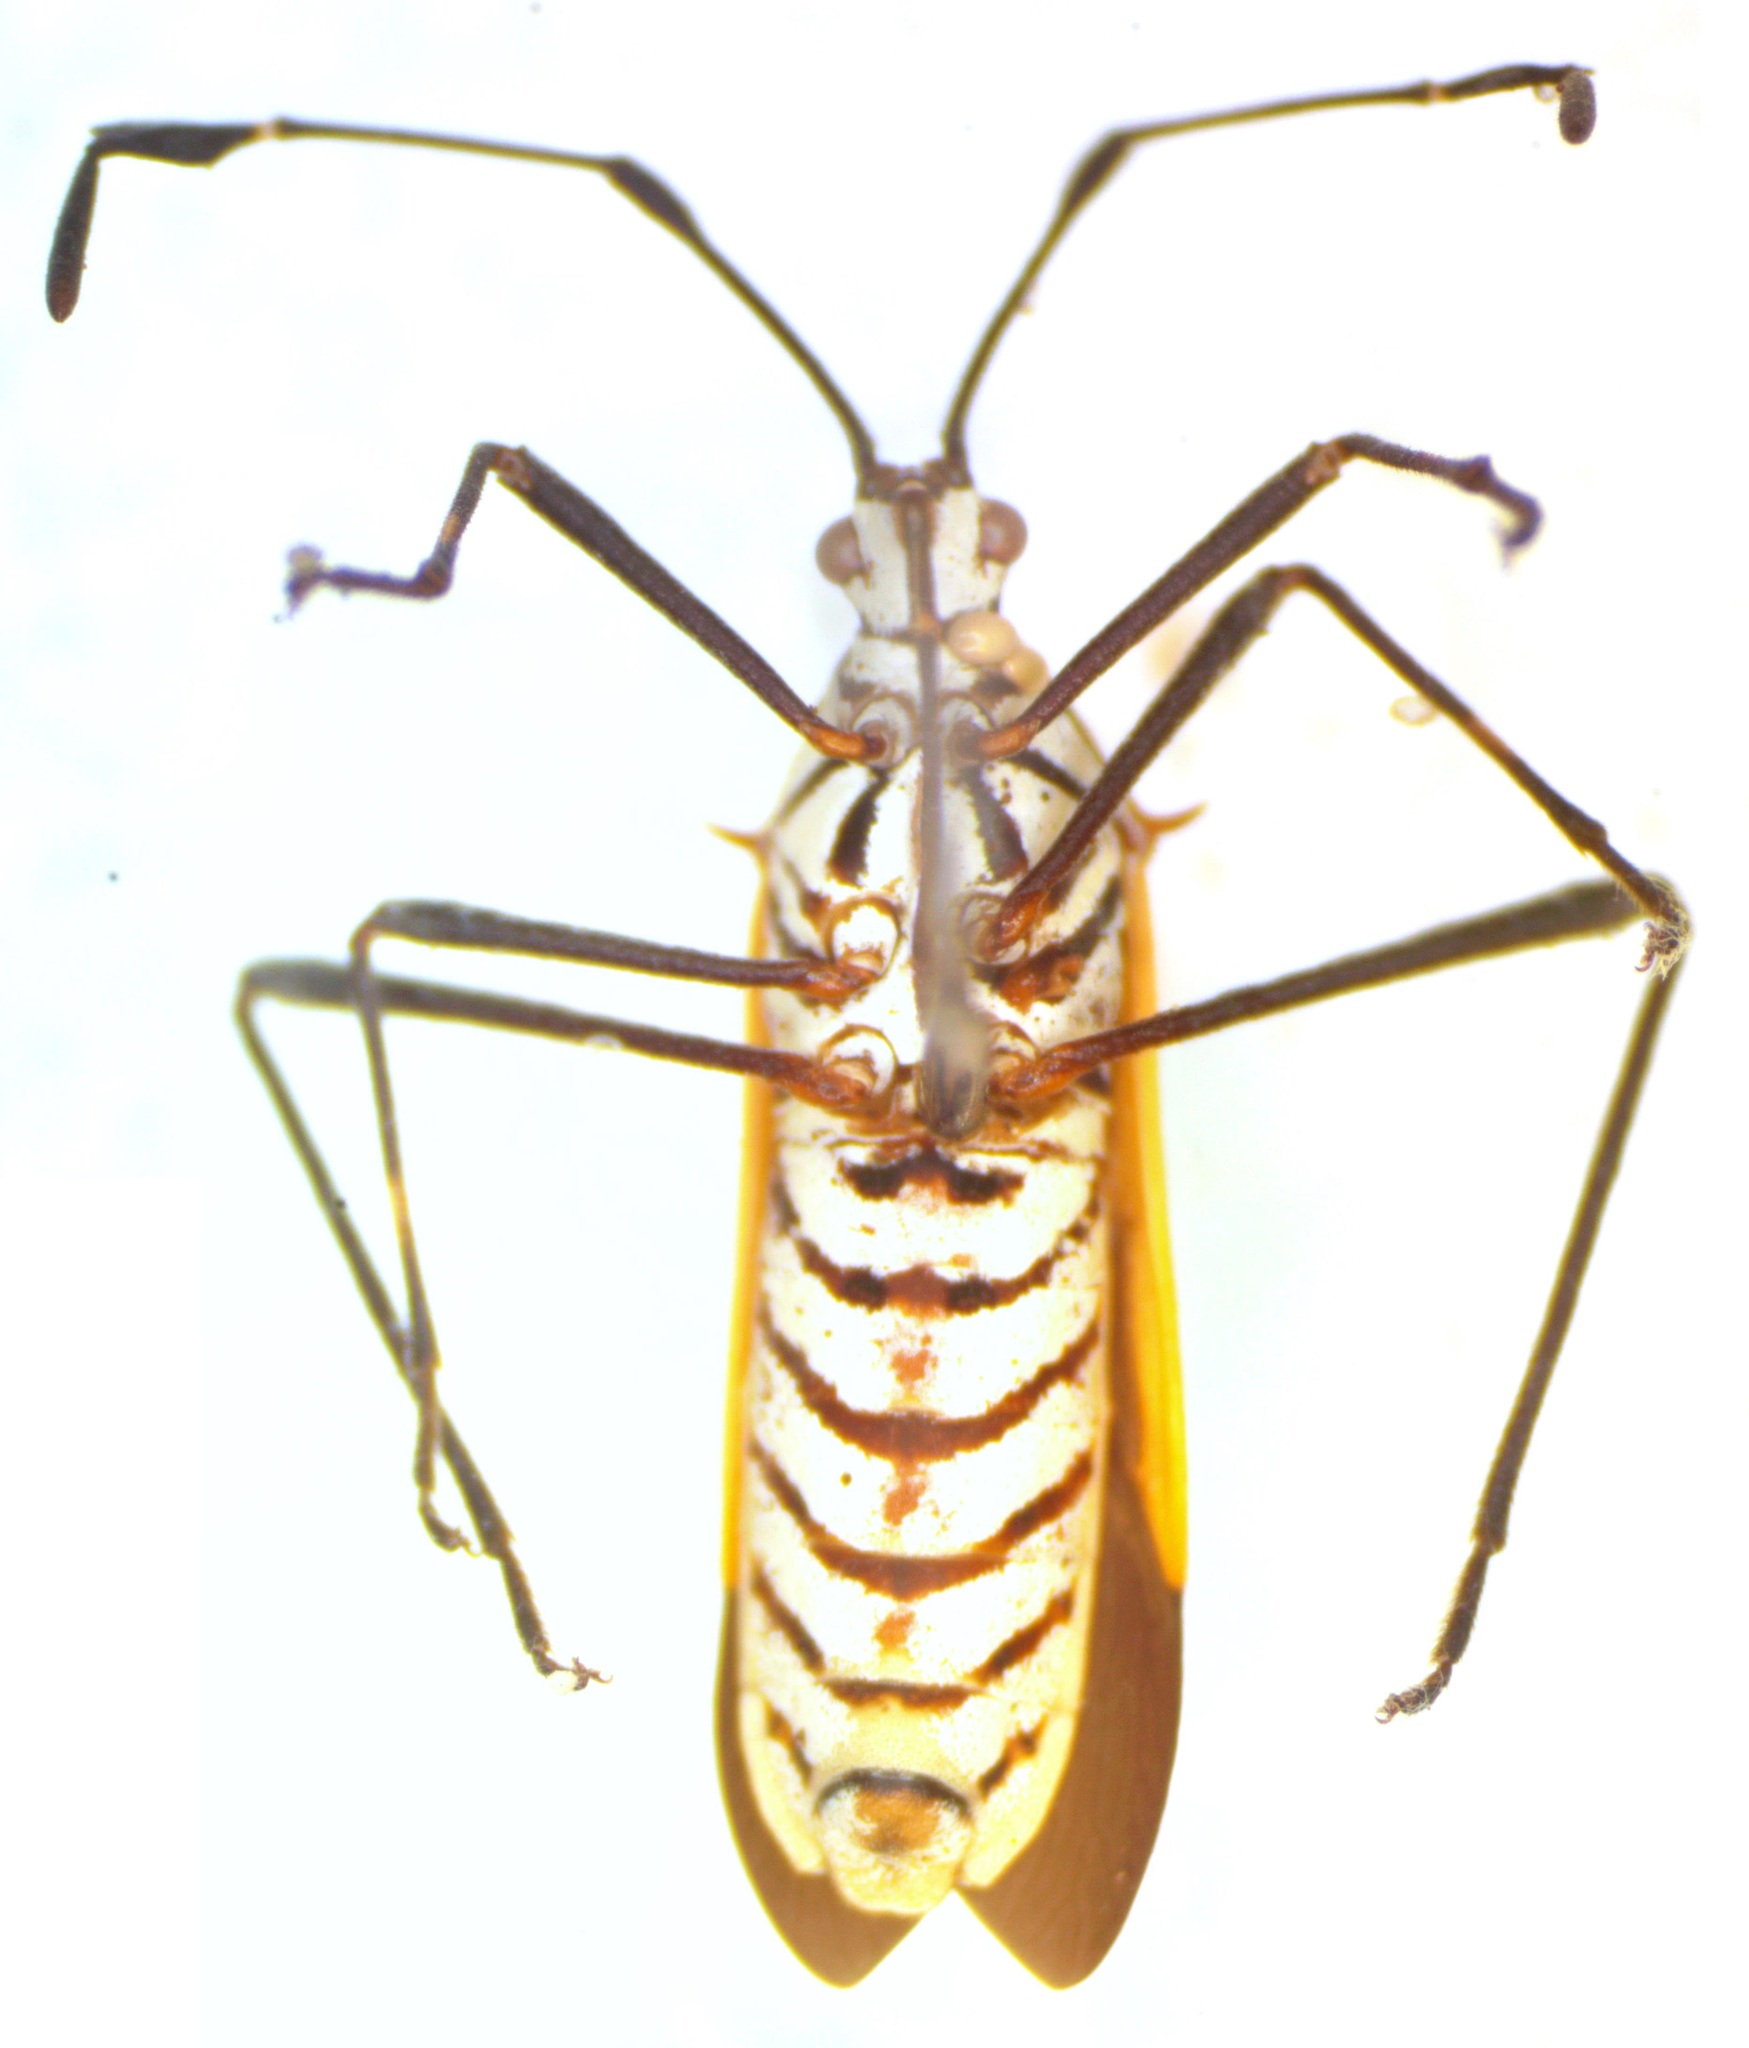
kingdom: Animalia
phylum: Arthropoda
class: Insecta
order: Hemiptera
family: Coreidae
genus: Plapigus
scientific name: Plapigus circumcinctus
